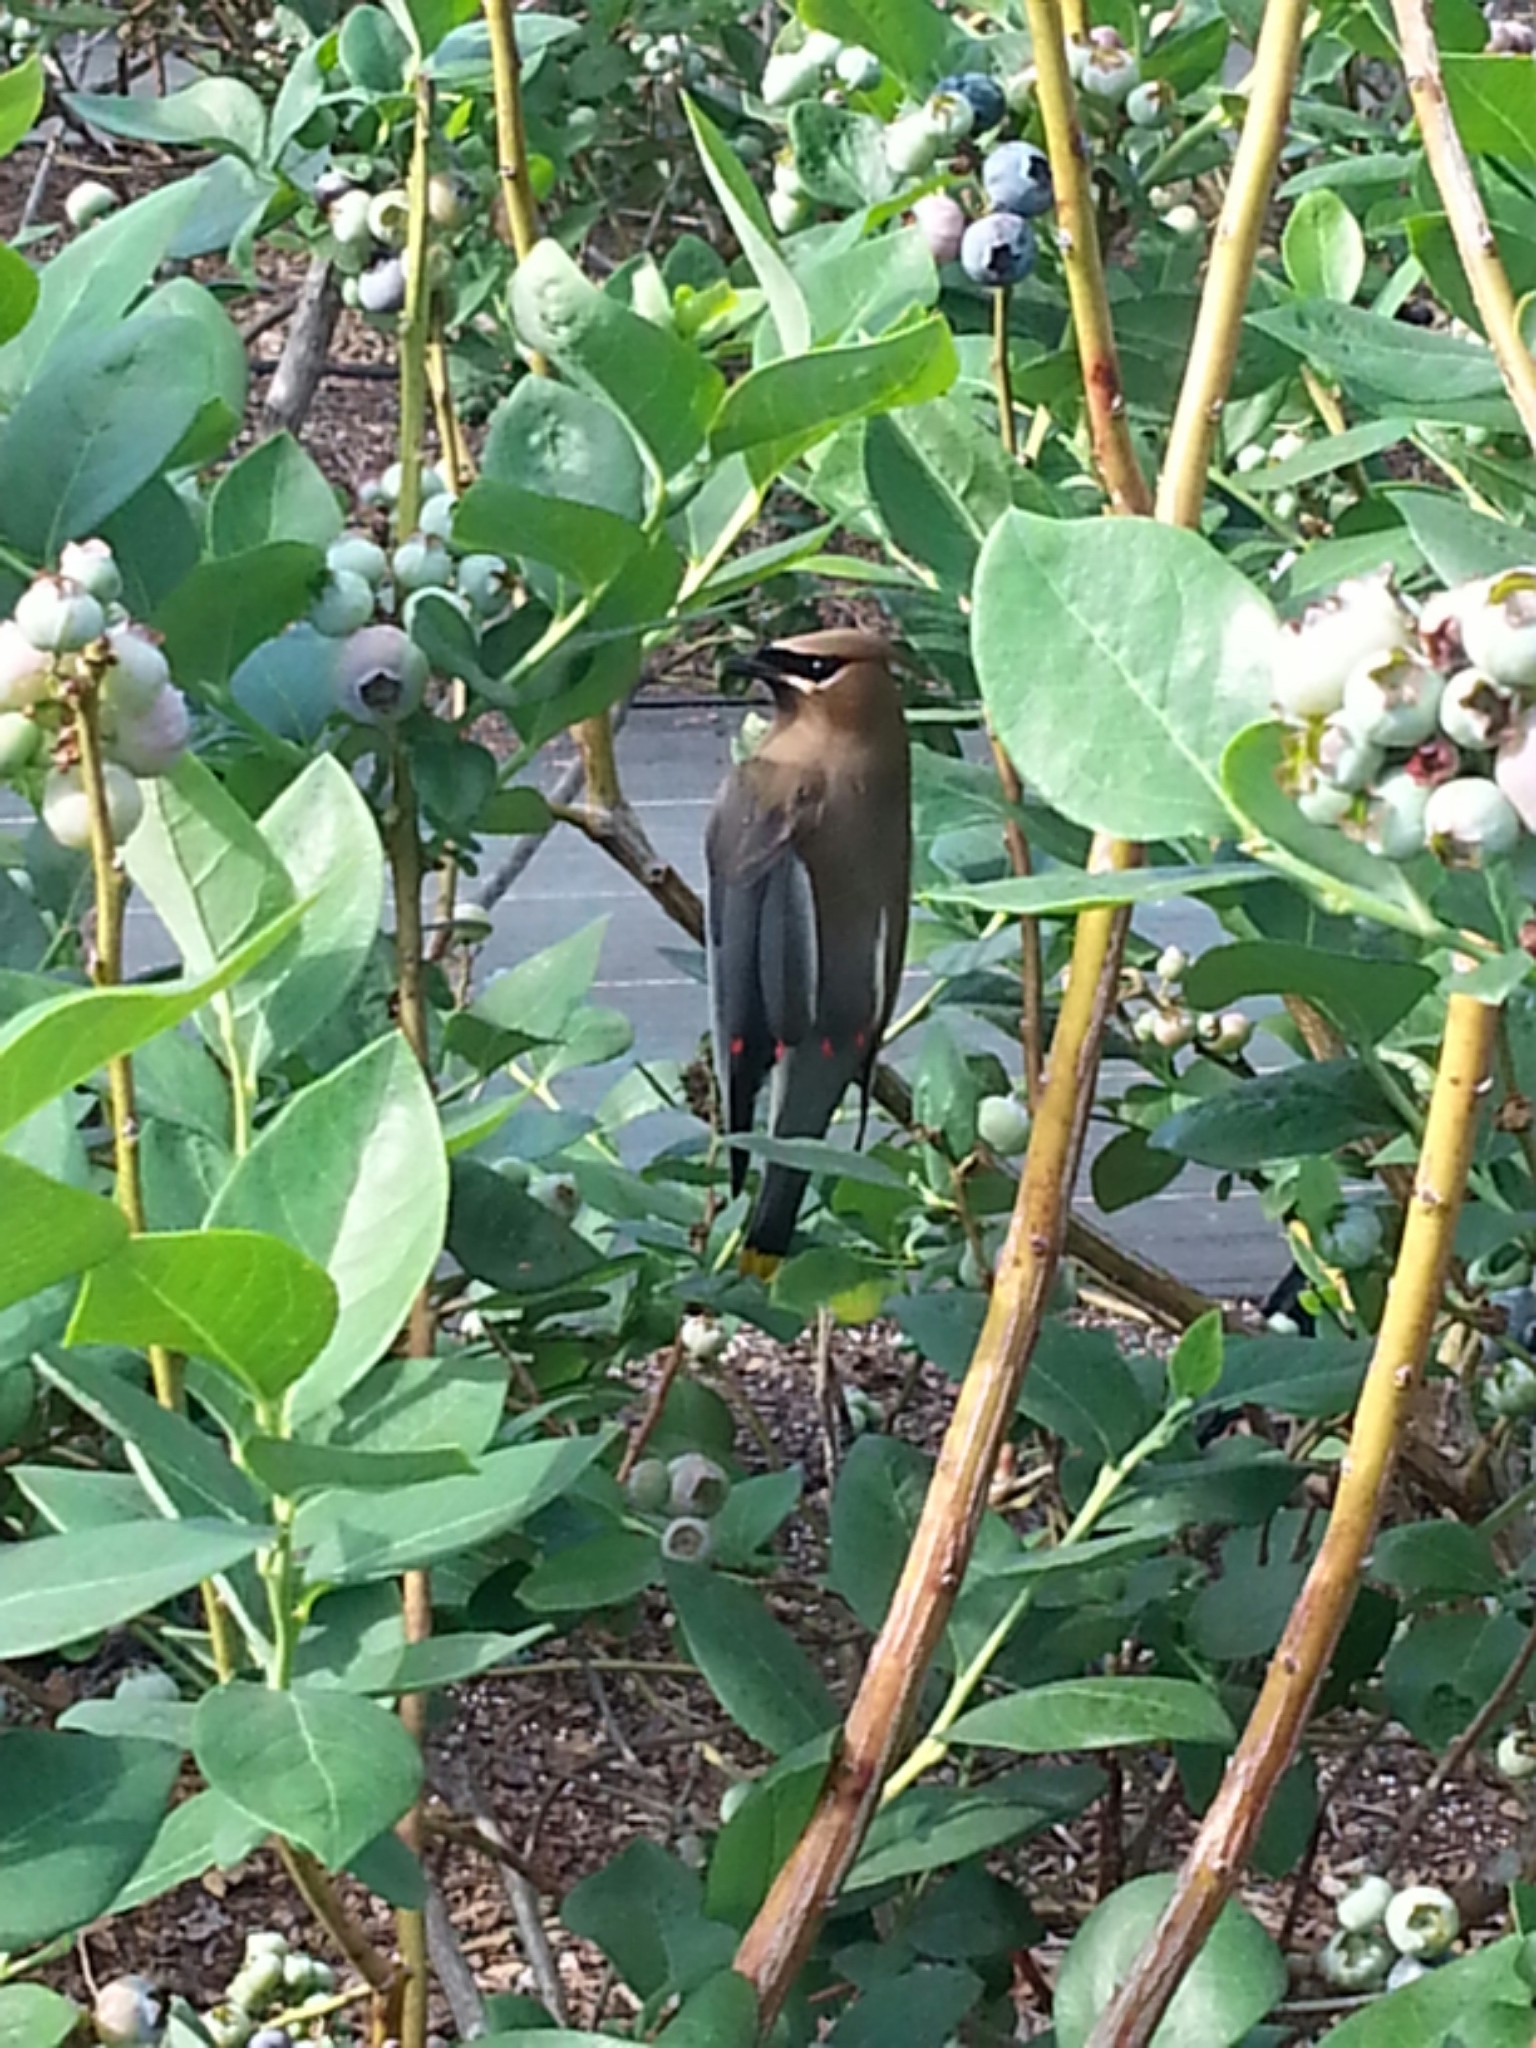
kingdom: Animalia
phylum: Chordata
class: Aves
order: Passeriformes
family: Bombycillidae
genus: Bombycilla
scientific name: Bombycilla cedrorum
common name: Cedar waxwing
